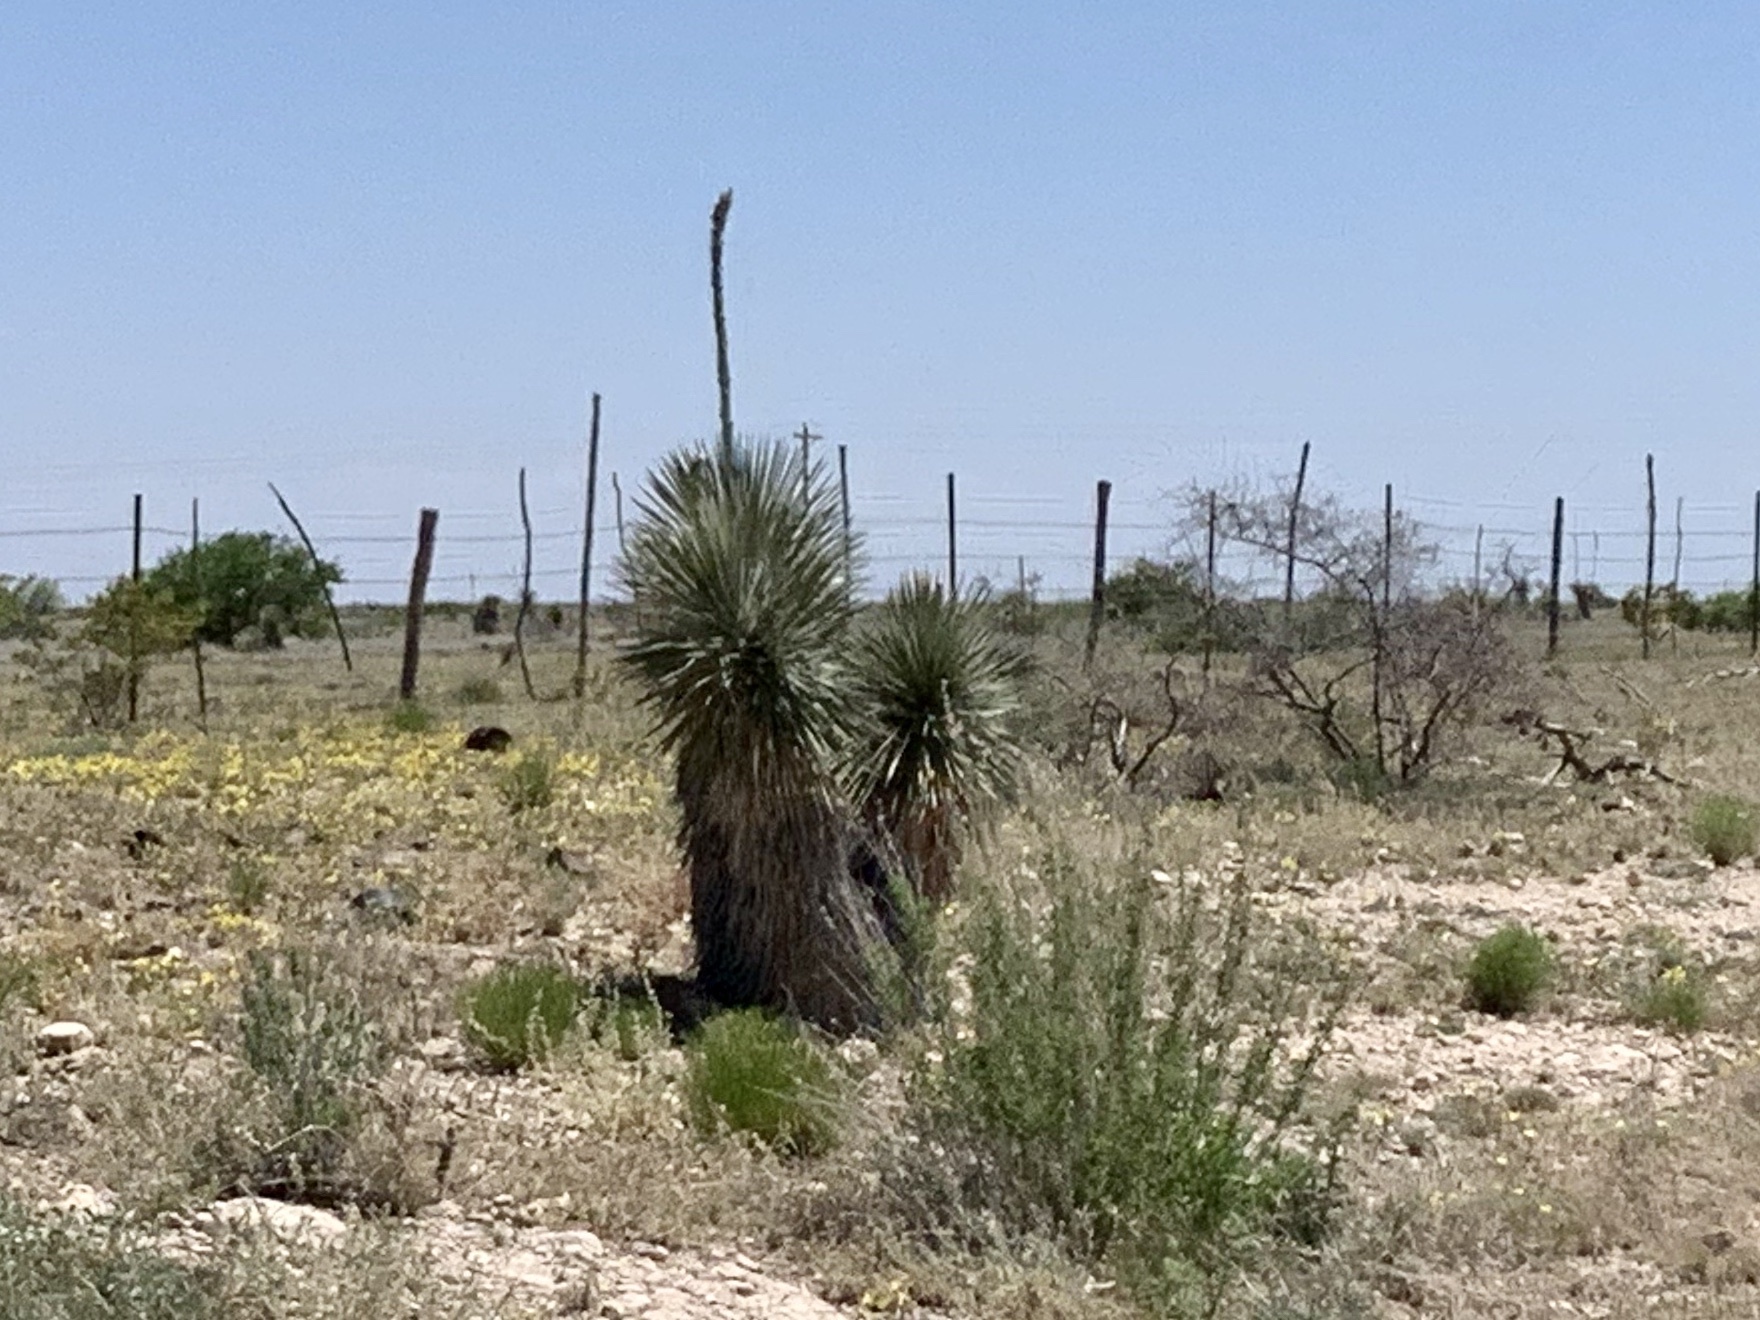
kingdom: Plantae
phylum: Tracheophyta
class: Liliopsida
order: Asparagales
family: Asparagaceae
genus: Yucca
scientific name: Yucca elata
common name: Palmella
